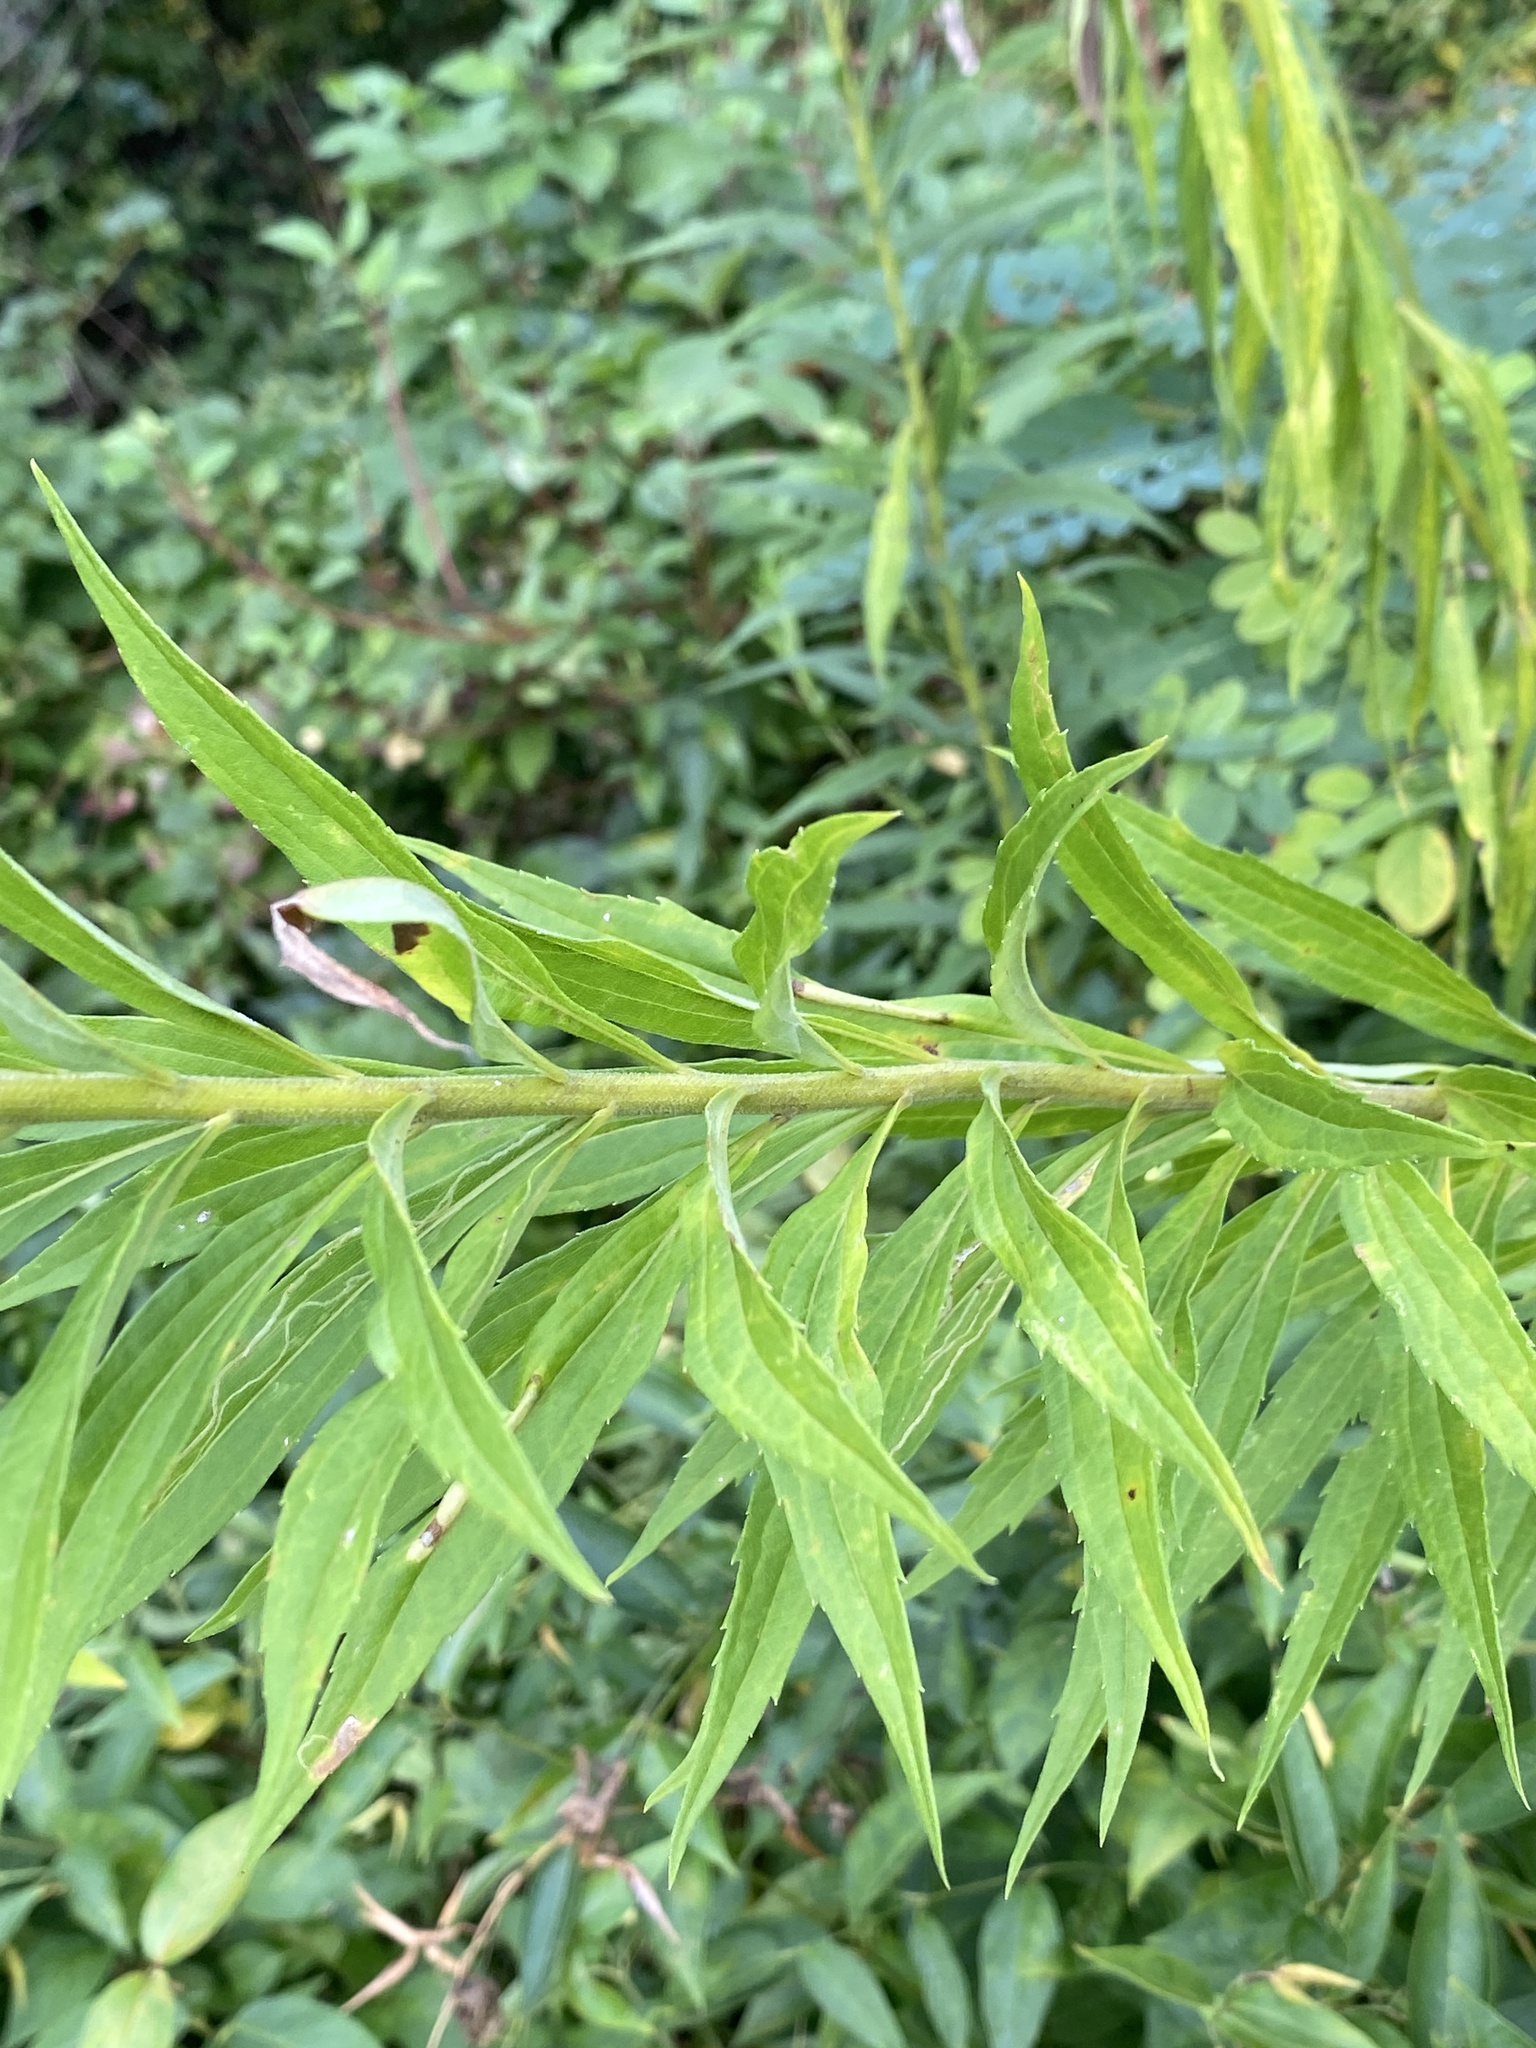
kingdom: Plantae
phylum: Tracheophyta
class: Magnoliopsida
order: Asterales
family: Asteraceae
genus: Solidago
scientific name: Solidago altissima
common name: Late goldenrod
